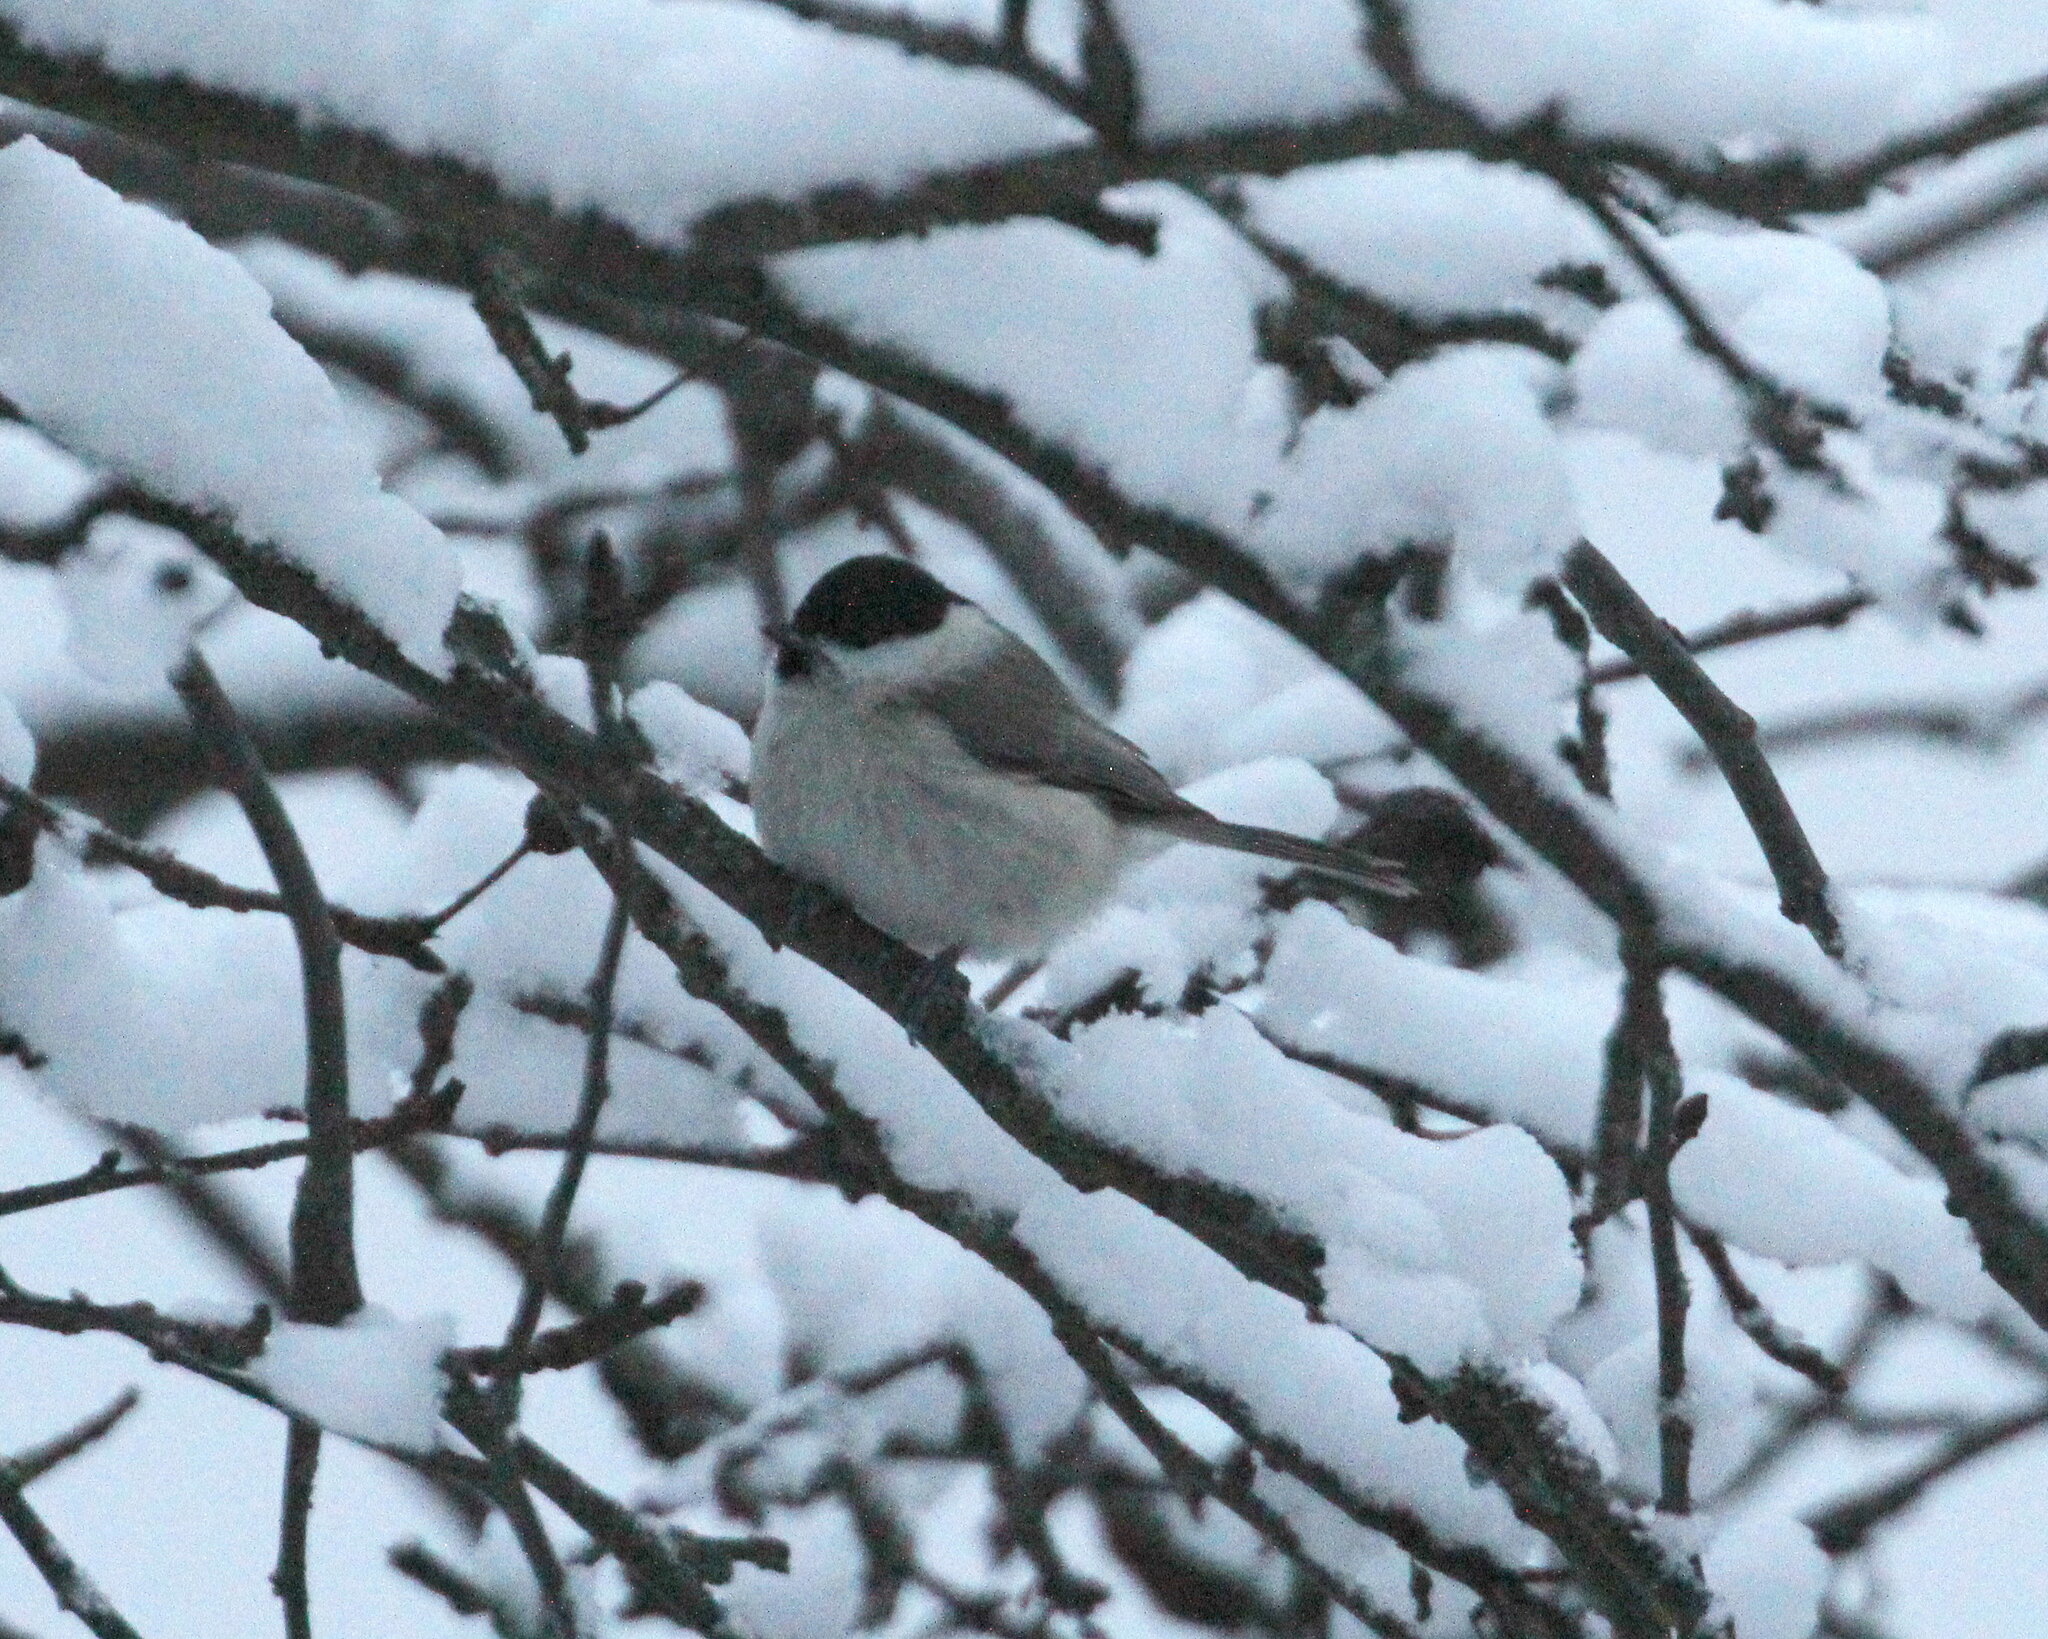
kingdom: Animalia
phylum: Chordata
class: Aves
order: Passeriformes
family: Paridae
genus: Poecile
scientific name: Poecile palustris
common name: Marsh tit
